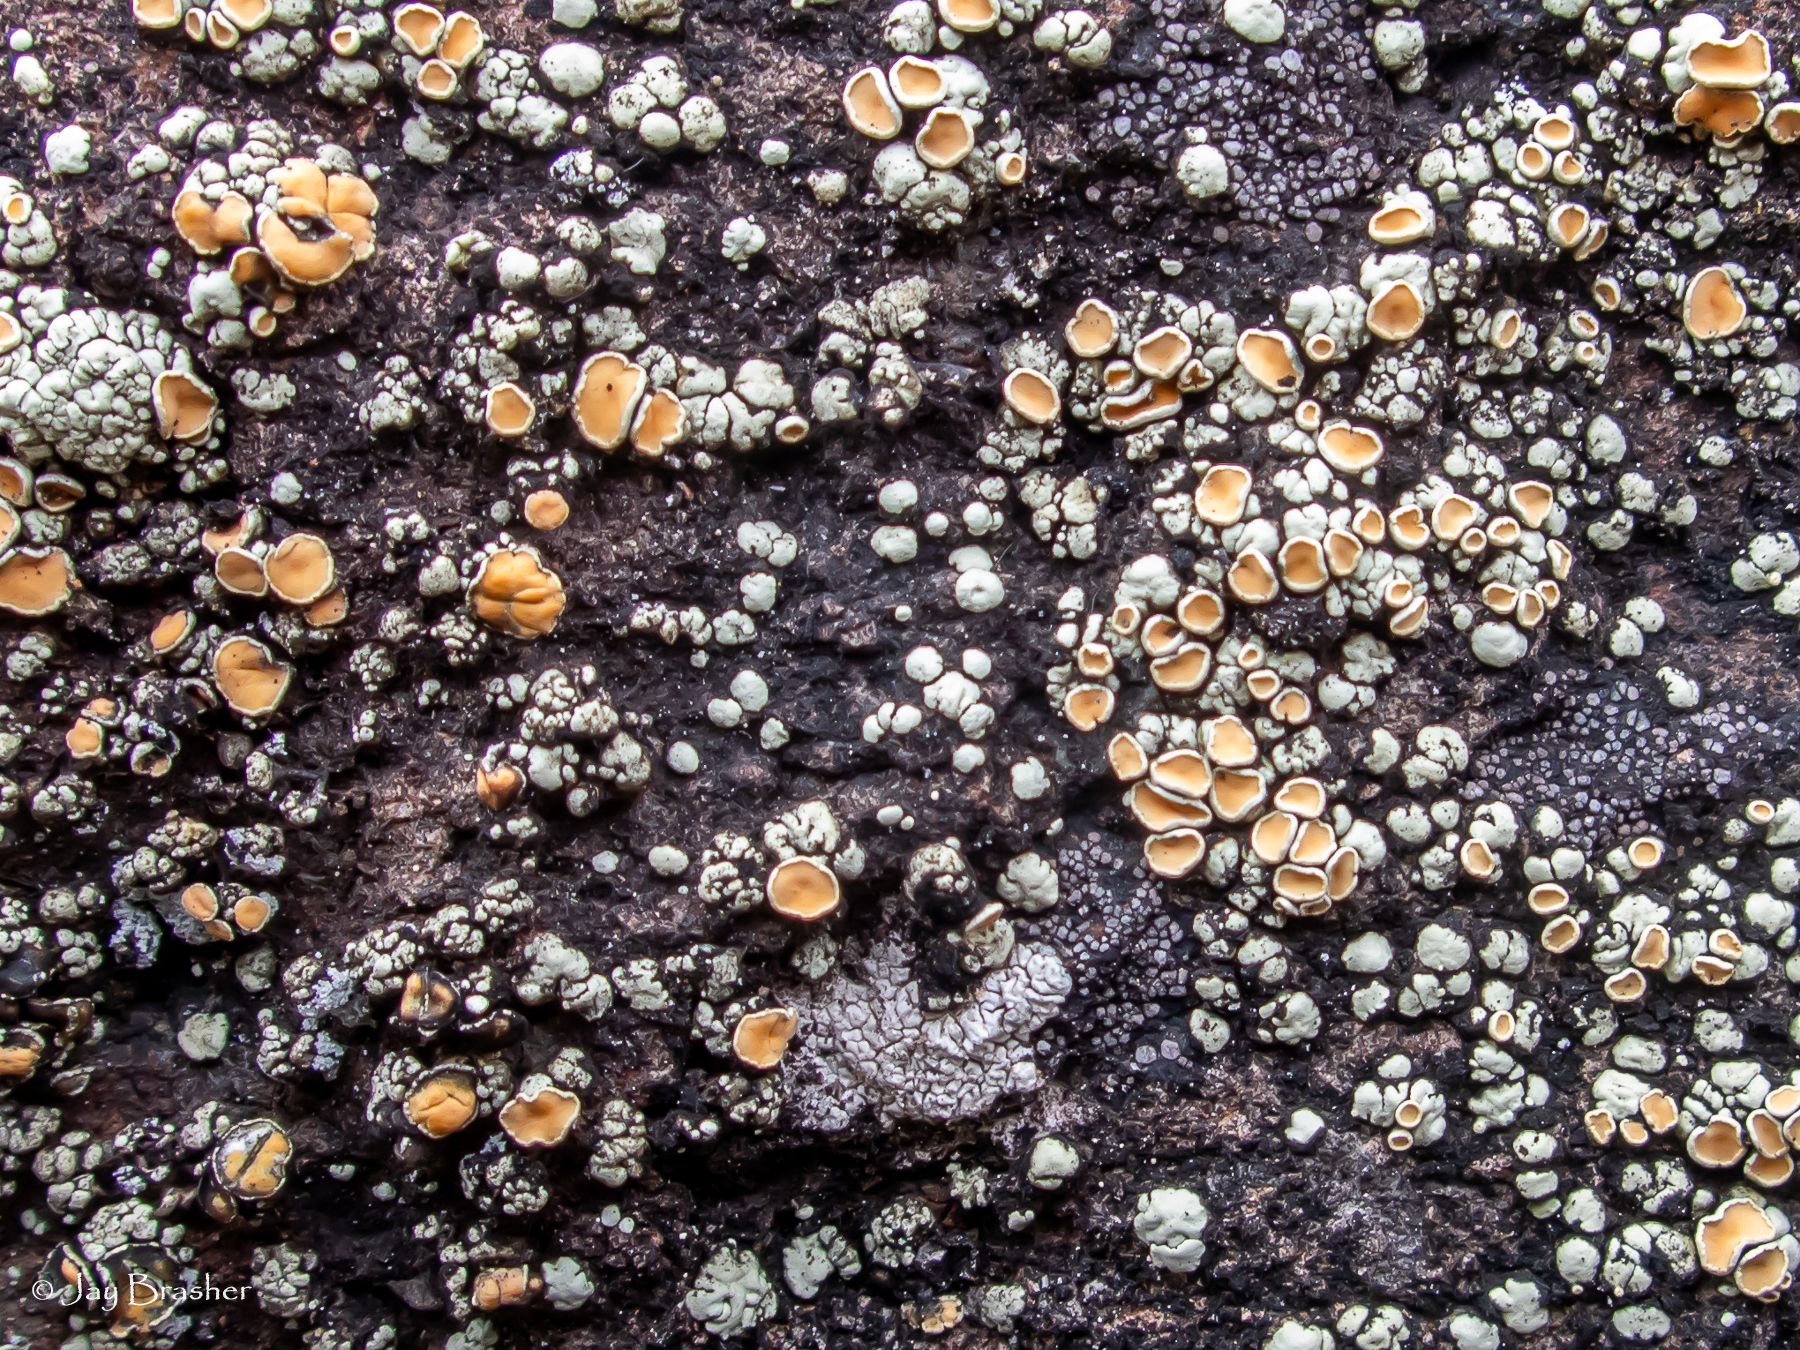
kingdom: Fungi
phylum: Ascomycota
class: Lecanoromycetes
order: Lecanorales
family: Lecanoraceae
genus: Sedelnikovaea
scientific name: Sedelnikovaea subdiscrepans
